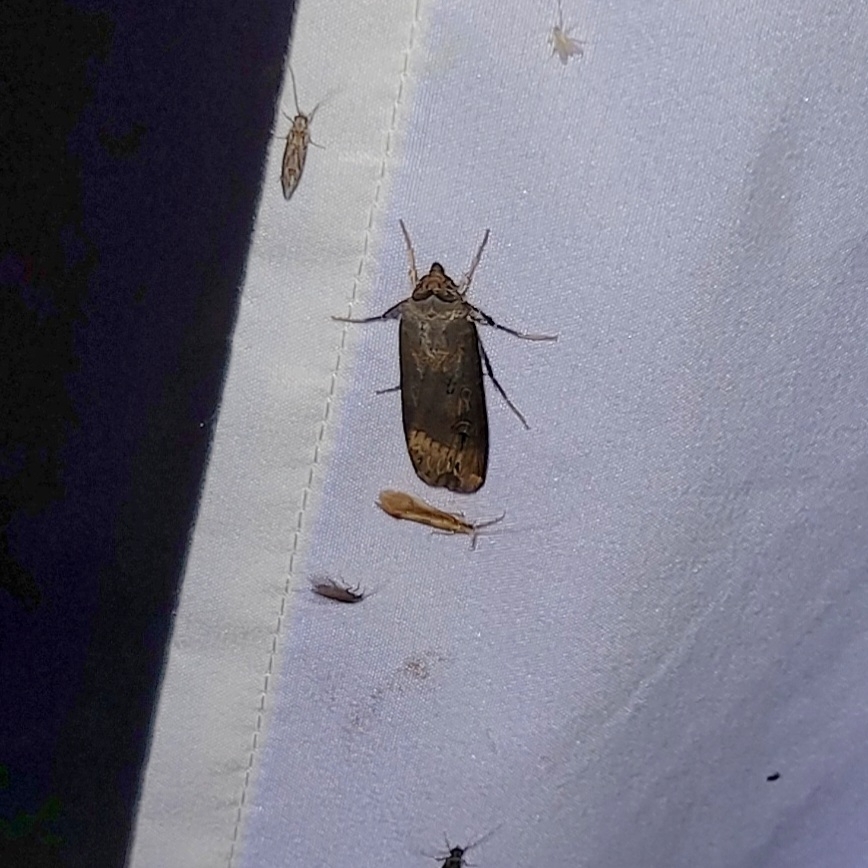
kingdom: Animalia
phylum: Arthropoda
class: Insecta
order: Lepidoptera
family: Noctuidae
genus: Agrotis
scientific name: Agrotis ipsilon
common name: Dark sword-grass
